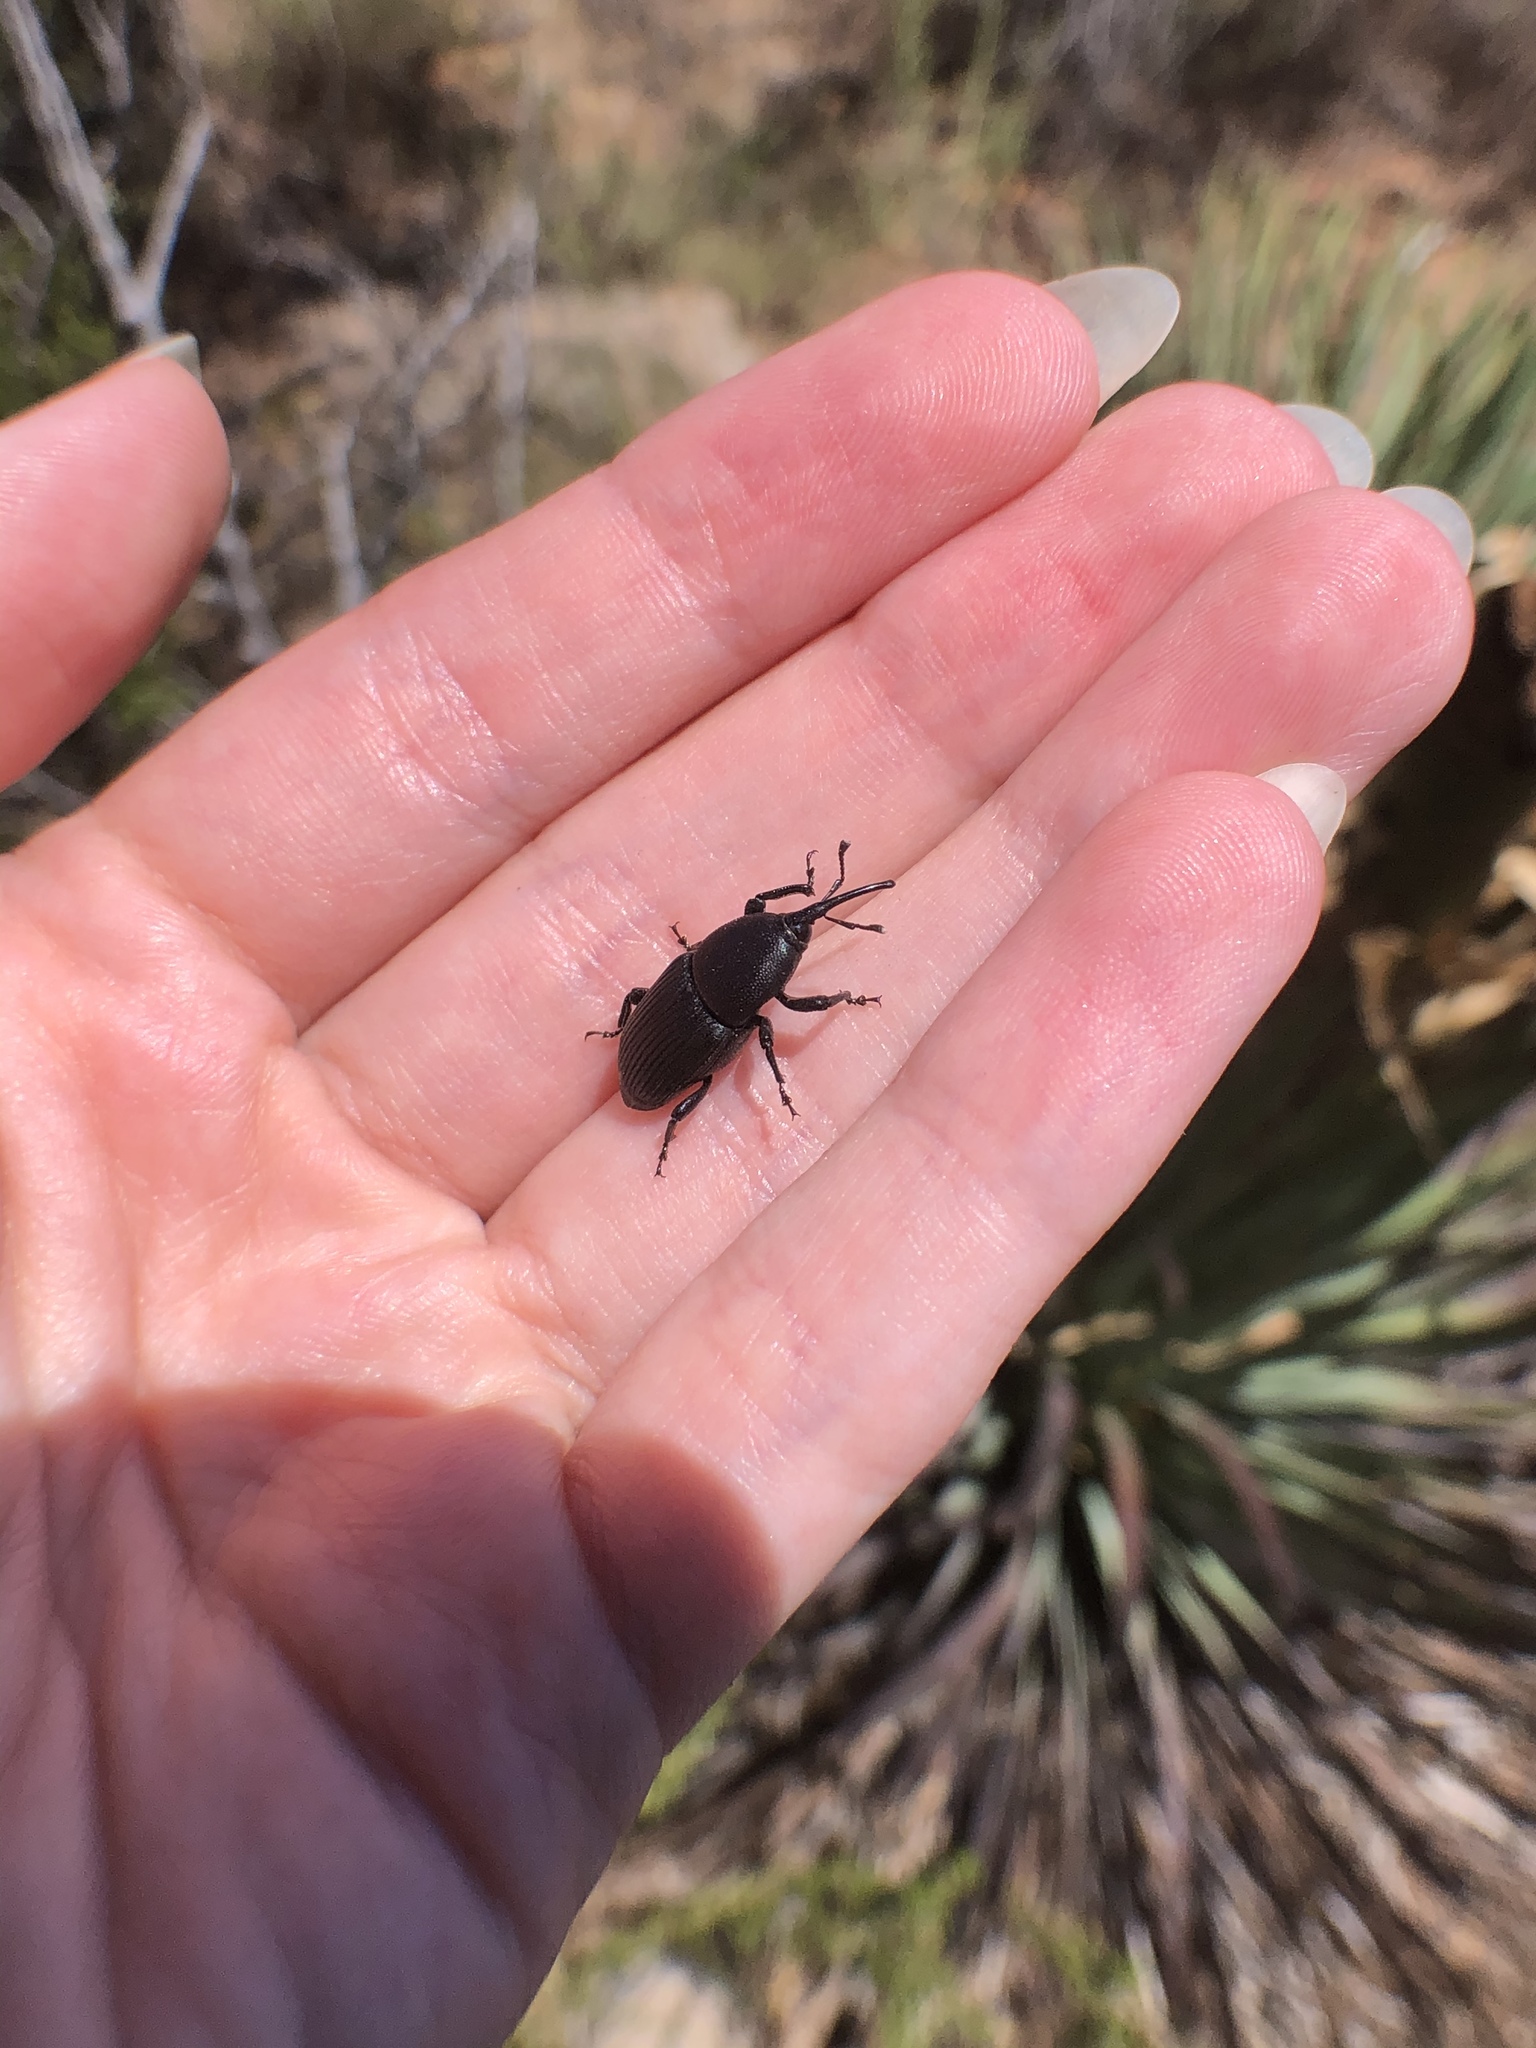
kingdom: Animalia
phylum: Arthropoda
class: Insecta
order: Coleoptera
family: Dryophthoridae
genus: Scyphophorus
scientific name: Scyphophorus yuccae
